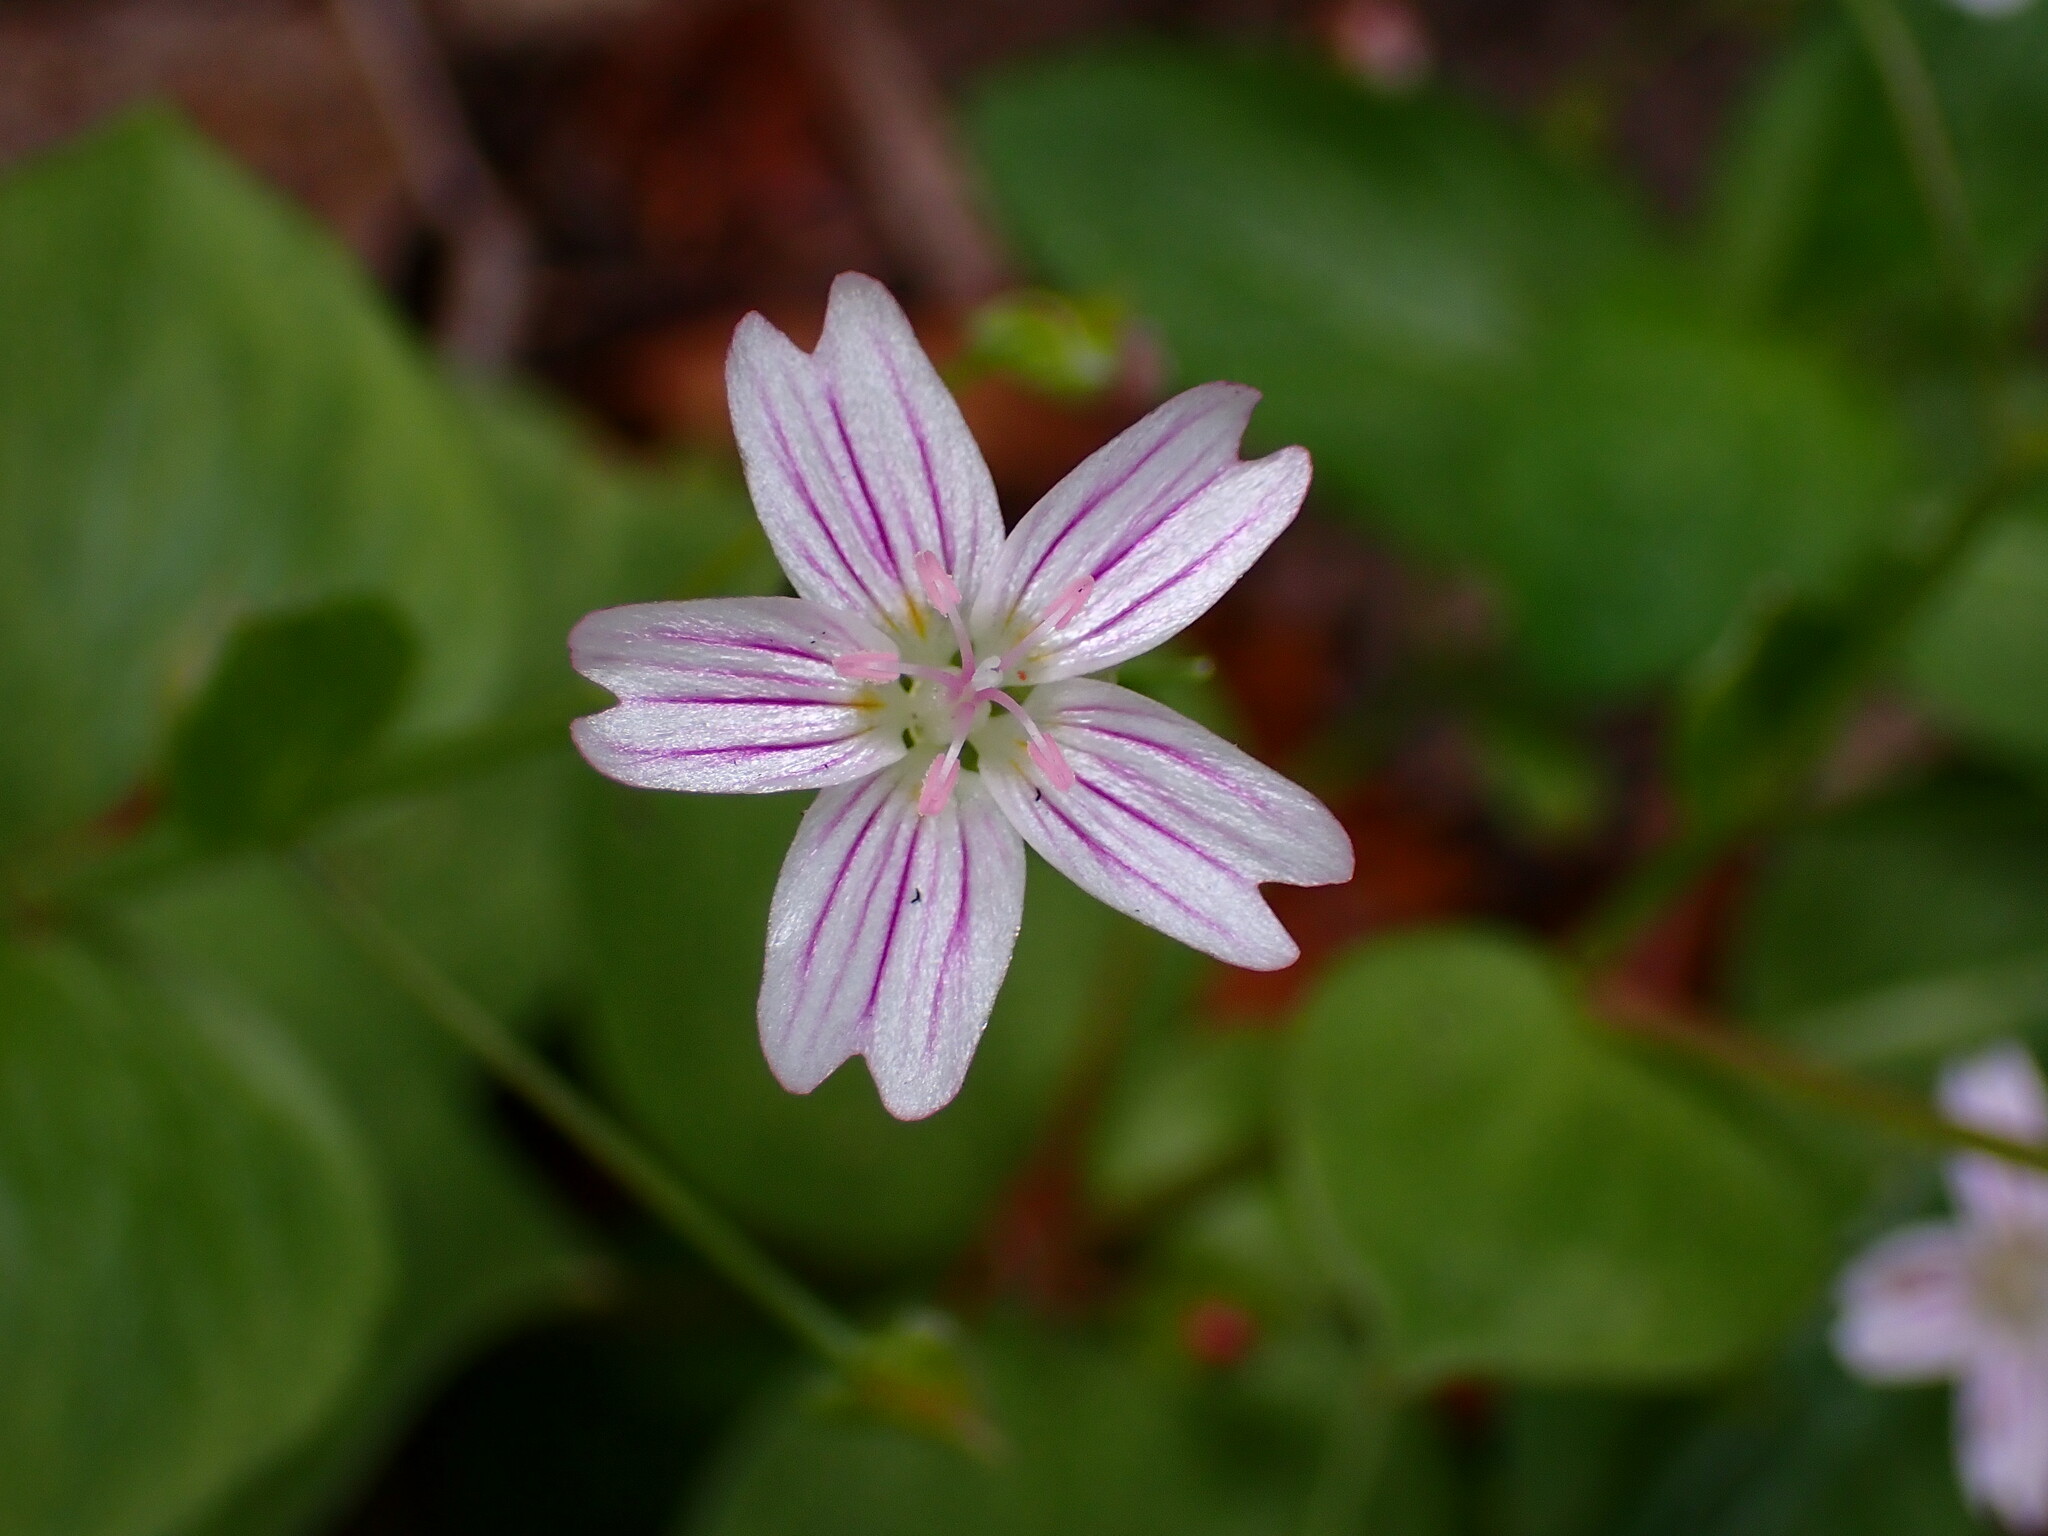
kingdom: Plantae
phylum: Tracheophyta
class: Magnoliopsida
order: Caryophyllales
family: Montiaceae
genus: Claytonia
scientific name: Claytonia sibirica
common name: Pink purslane
